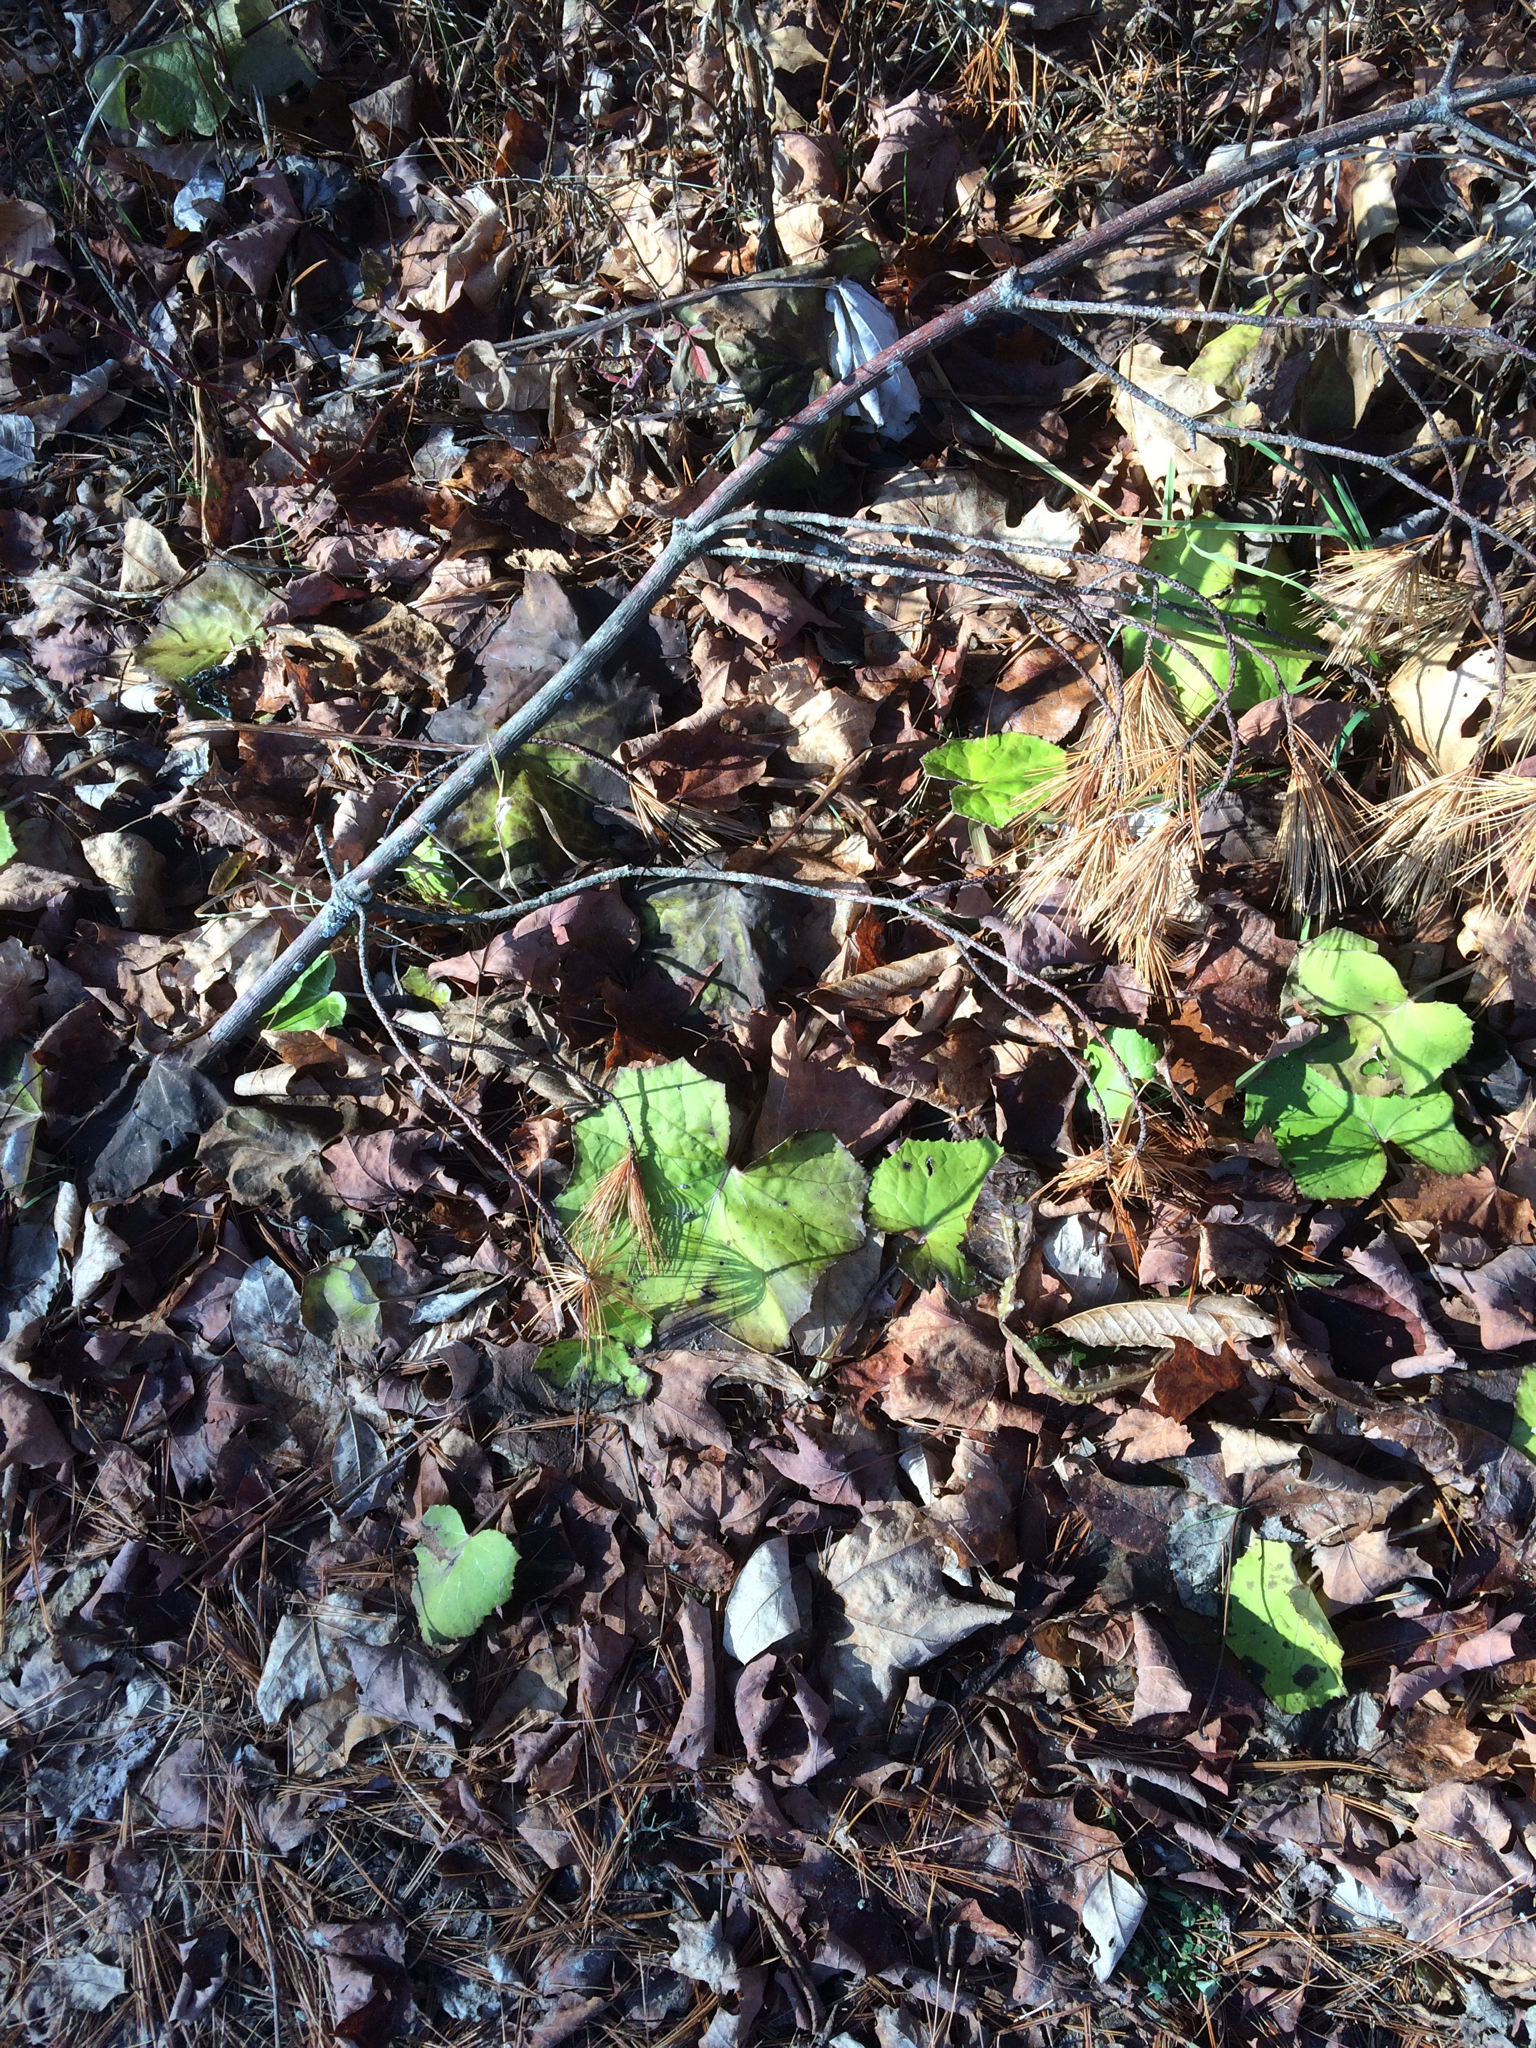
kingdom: Plantae
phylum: Tracheophyta
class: Magnoliopsida
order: Asterales
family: Asteraceae
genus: Tussilago
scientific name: Tussilago farfara
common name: Coltsfoot
